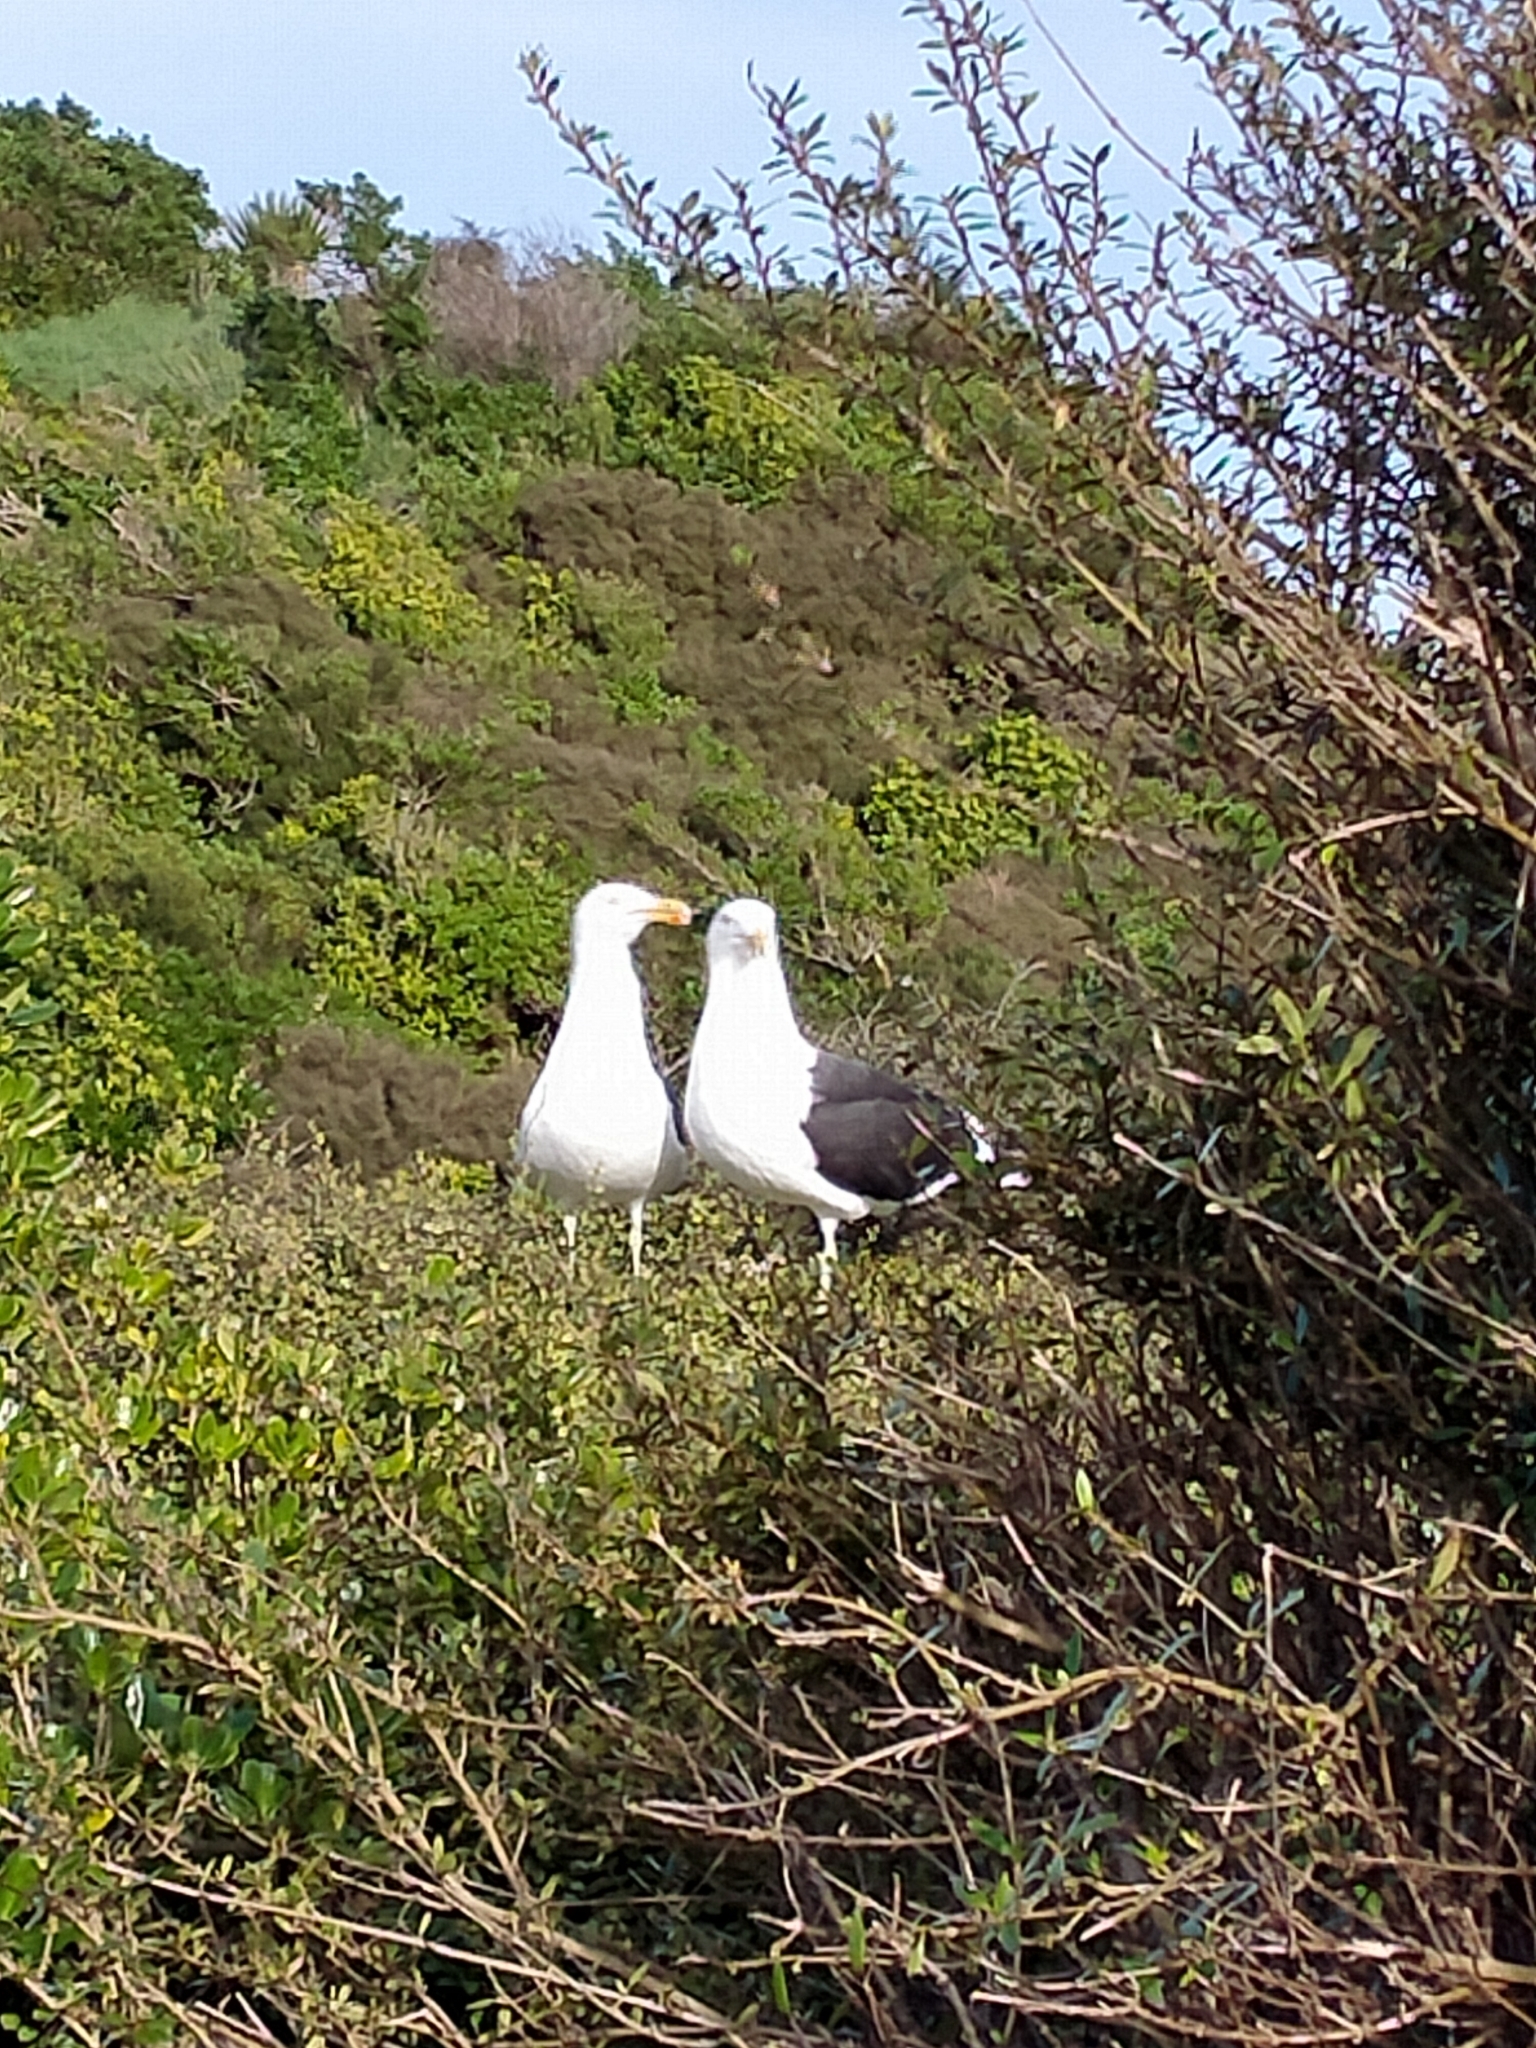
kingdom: Animalia
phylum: Chordata
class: Aves
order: Charadriiformes
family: Laridae
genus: Larus
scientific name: Larus dominicanus
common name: Kelp gull
